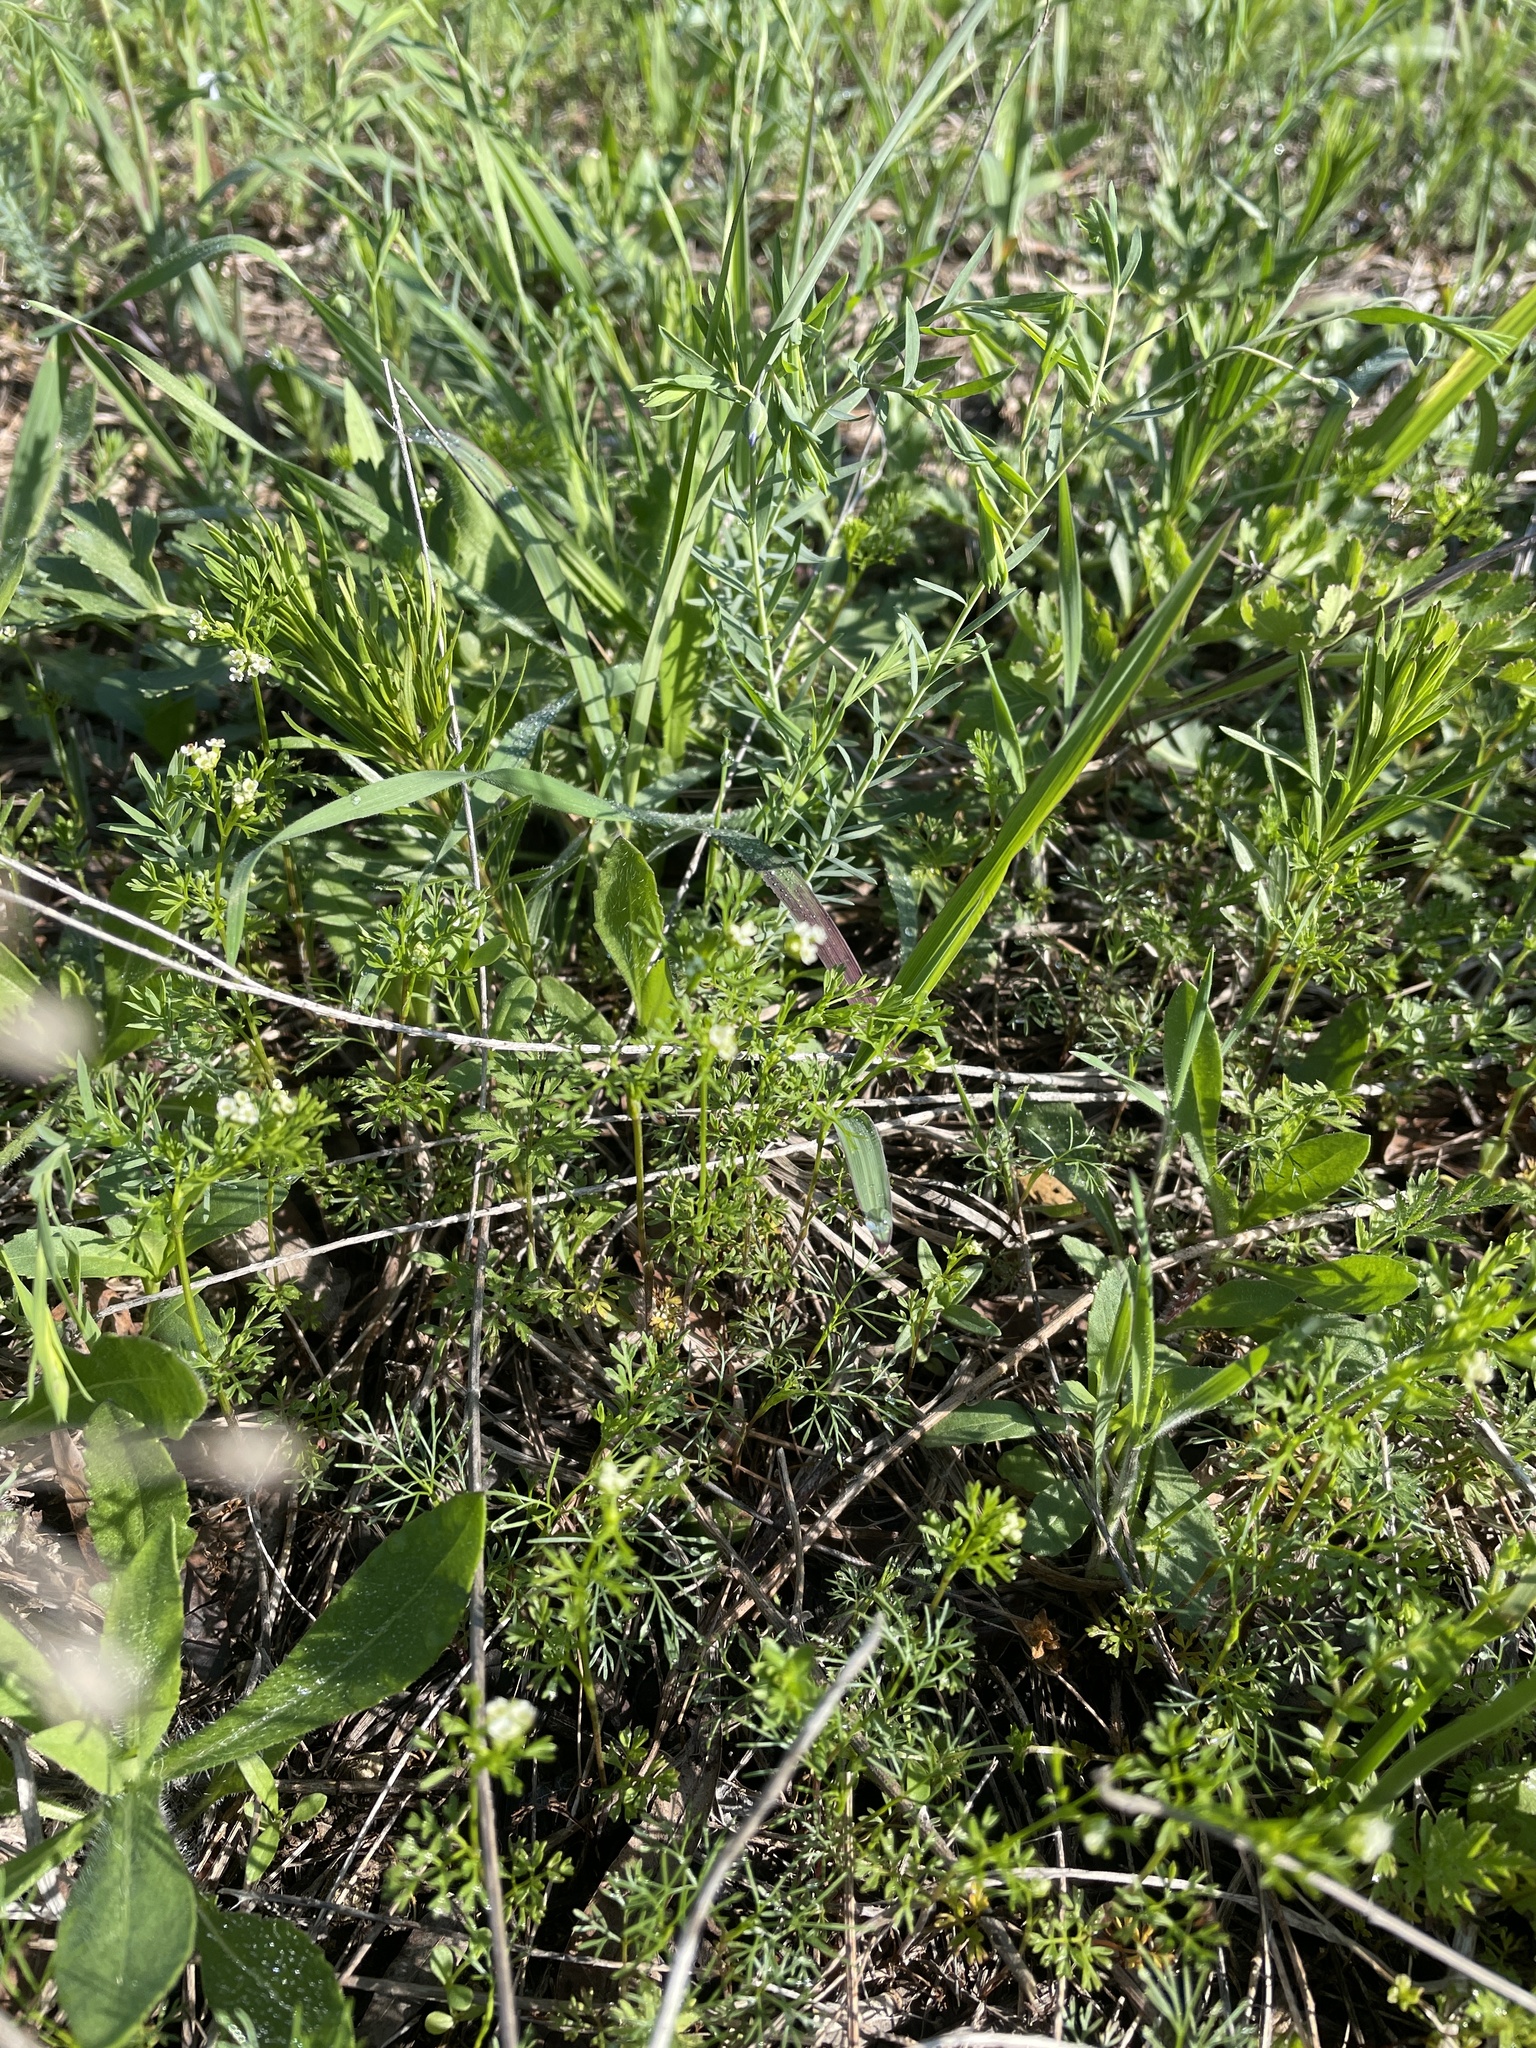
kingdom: Plantae
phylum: Tracheophyta
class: Magnoliopsida
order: Apiales
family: Apiaceae
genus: Chaerophyllum
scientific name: Chaerophyllum tainturieri
